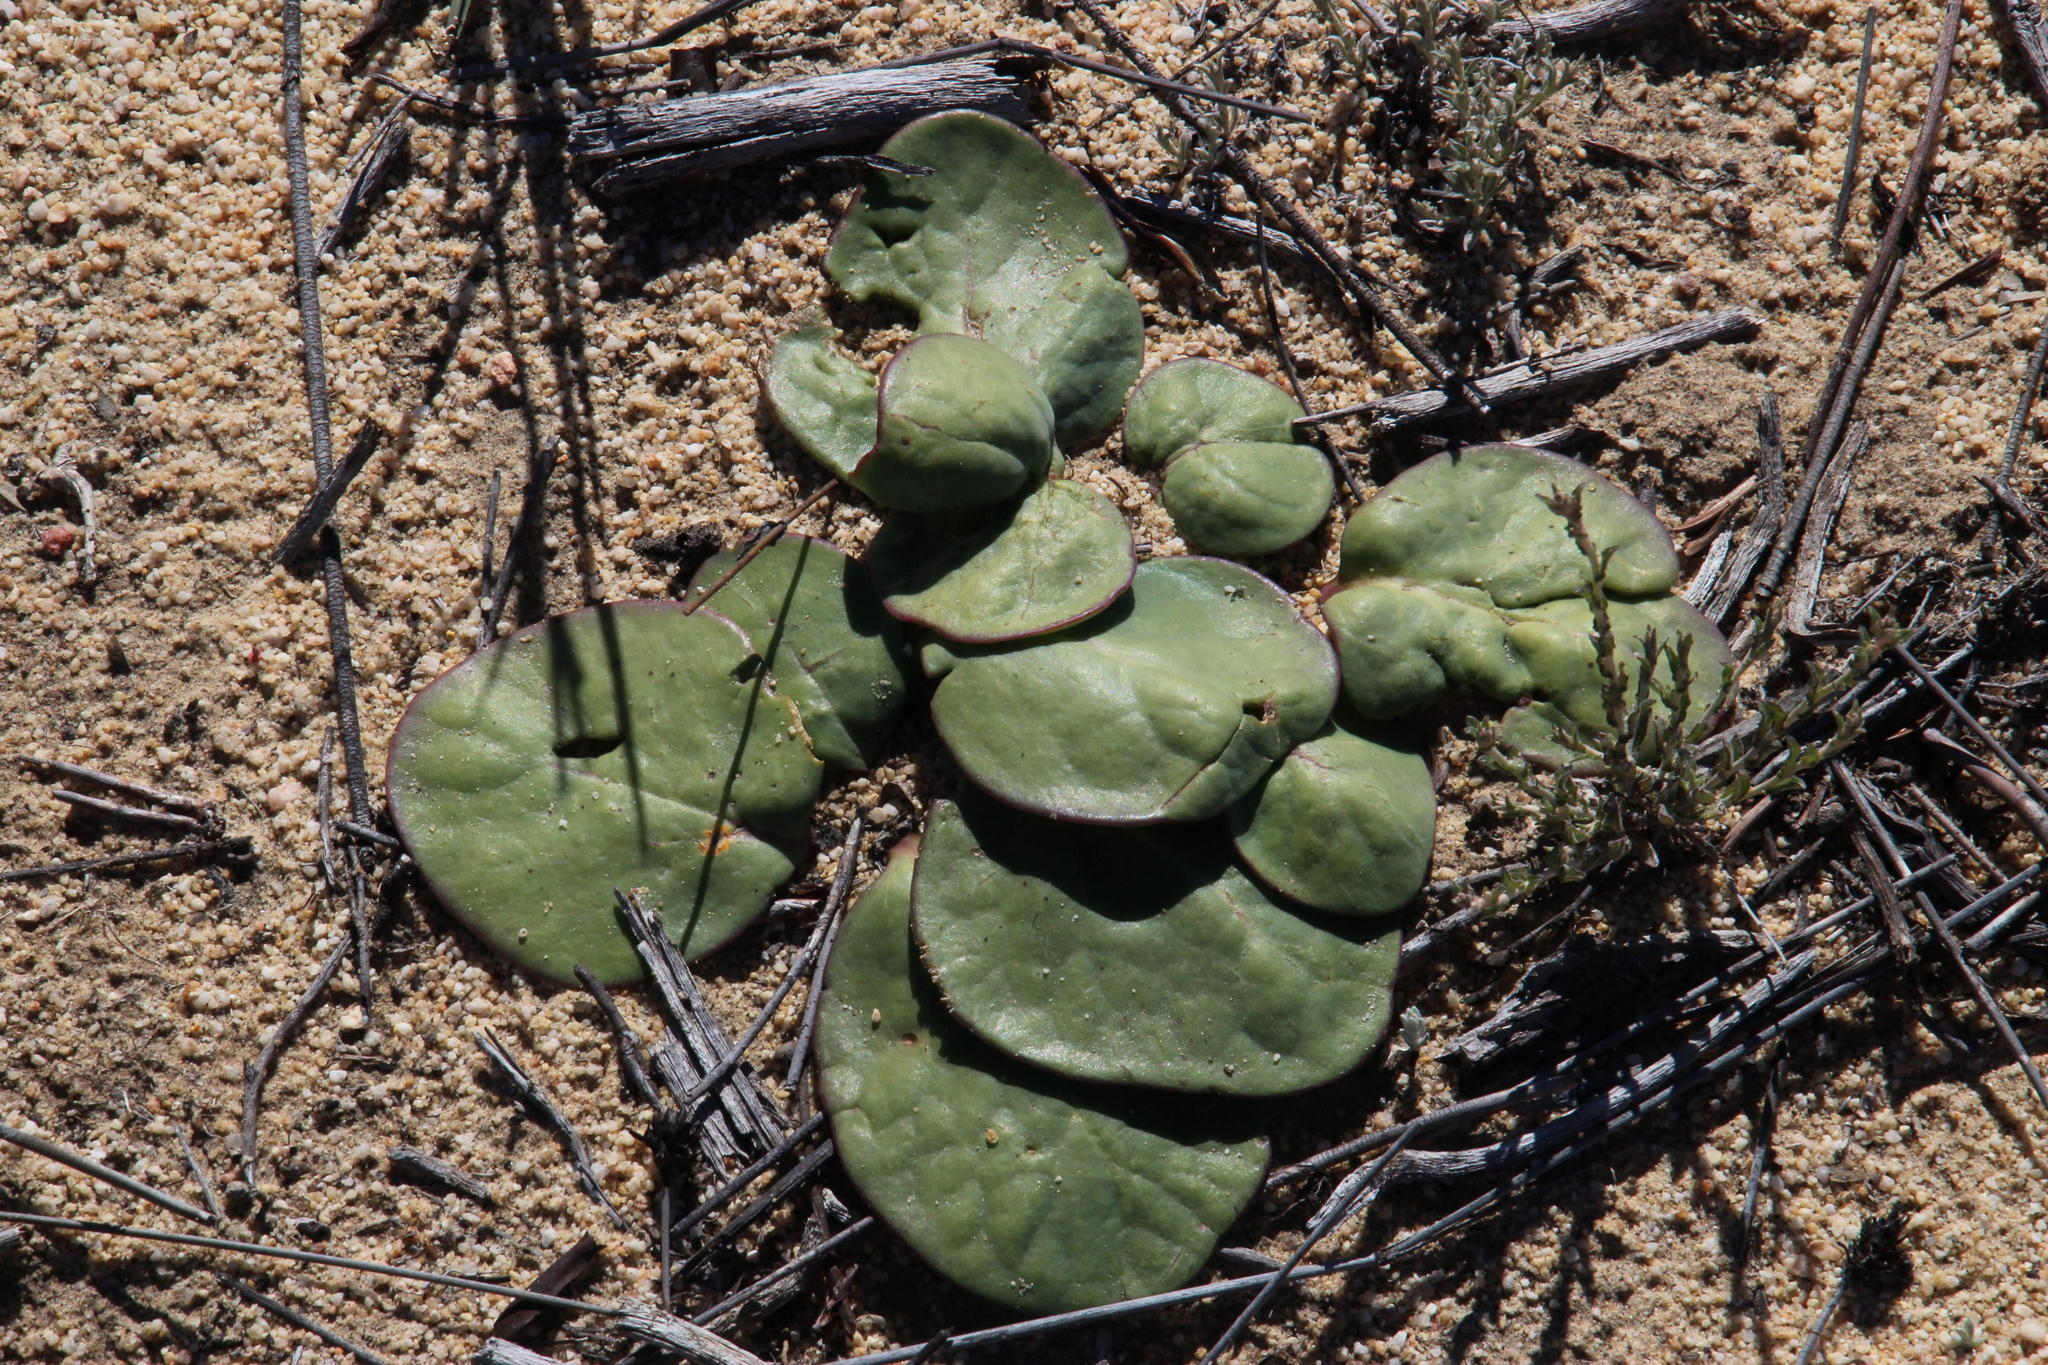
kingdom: Plantae
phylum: Tracheophyta
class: Magnoliopsida
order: Asterales
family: Asteraceae
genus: Othonna
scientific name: Othonna oleracea
